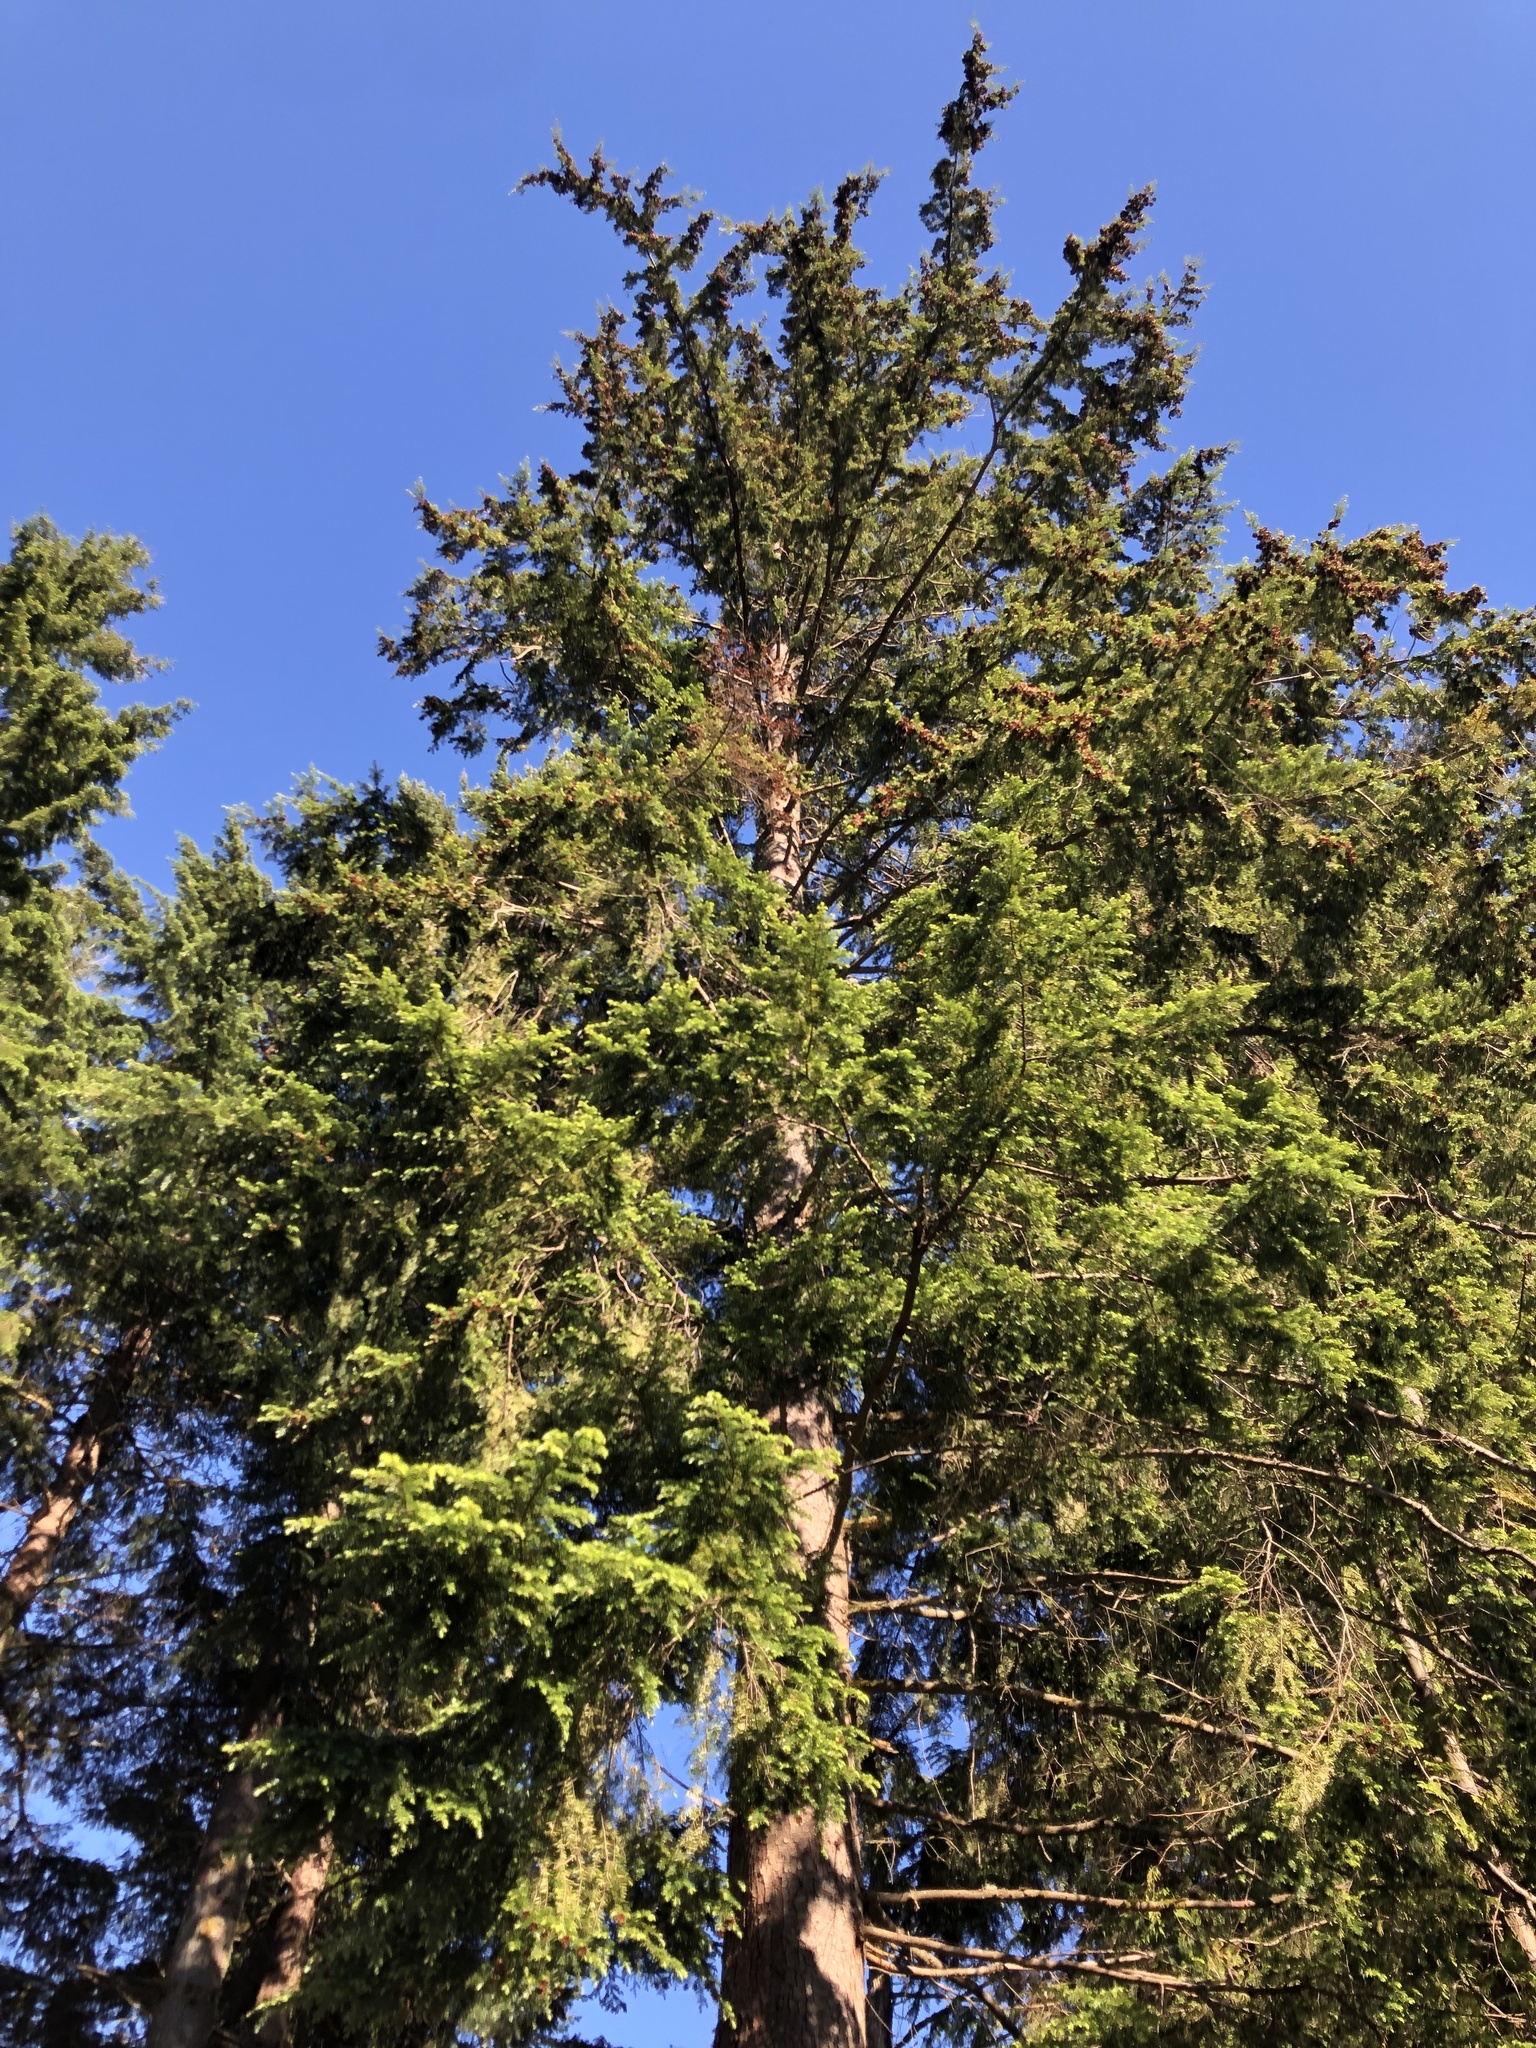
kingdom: Plantae
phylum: Tracheophyta
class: Pinopsida
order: Pinales
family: Pinaceae
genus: Tsuga
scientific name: Tsuga heterophylla
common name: Western hemlock
